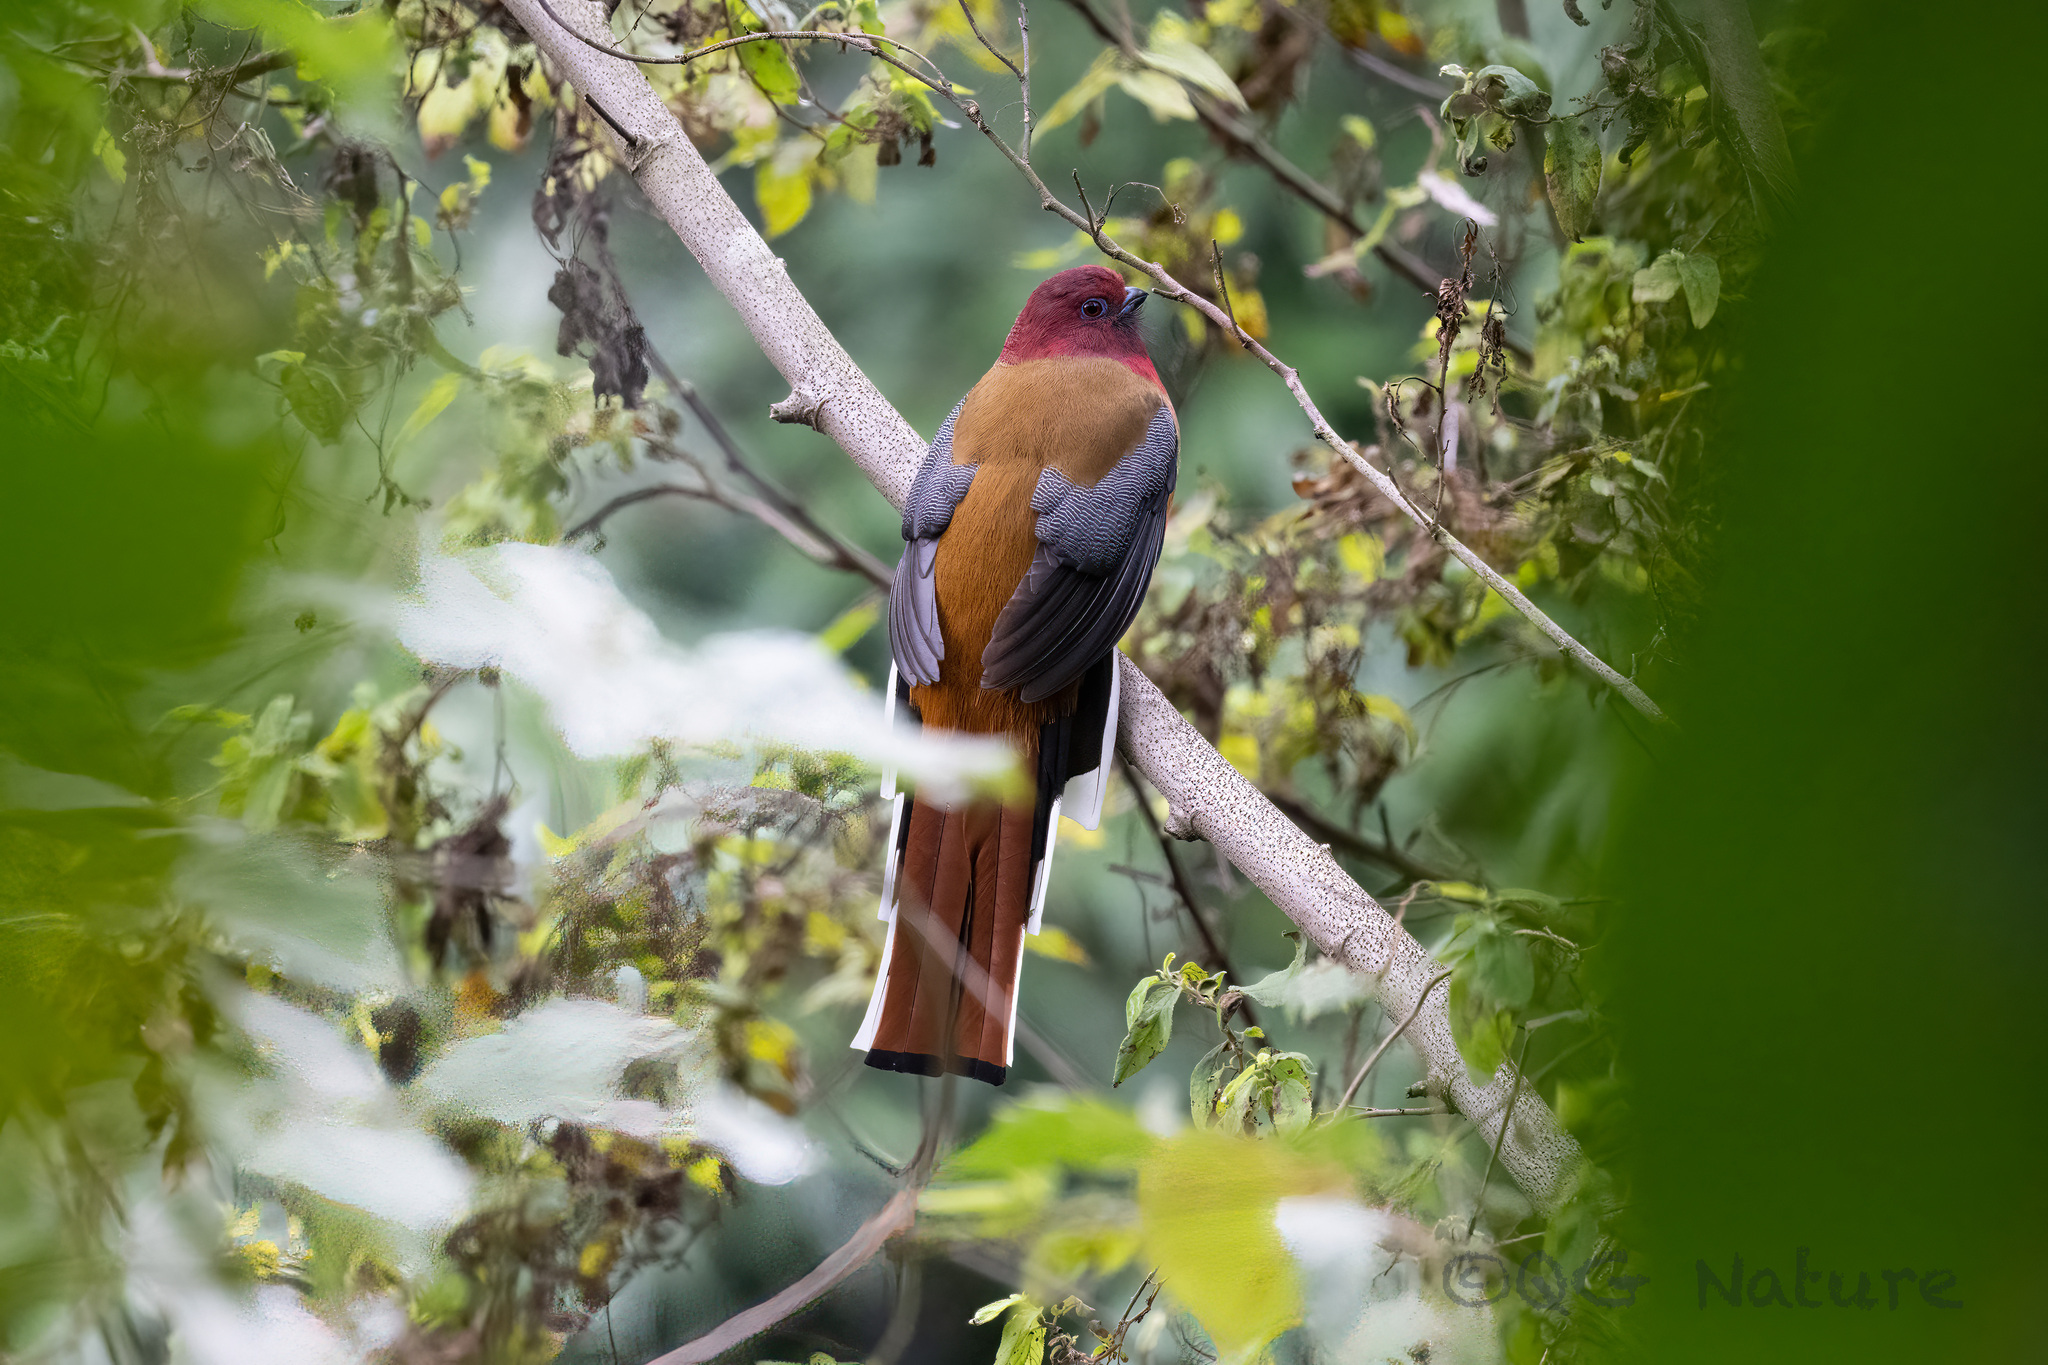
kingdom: Animalia
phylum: Chordata
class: Aves
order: Trogoniformes
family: Trogonidae
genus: Harpactes
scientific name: Harpactes erythrocephalus
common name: Red-headed trogon
